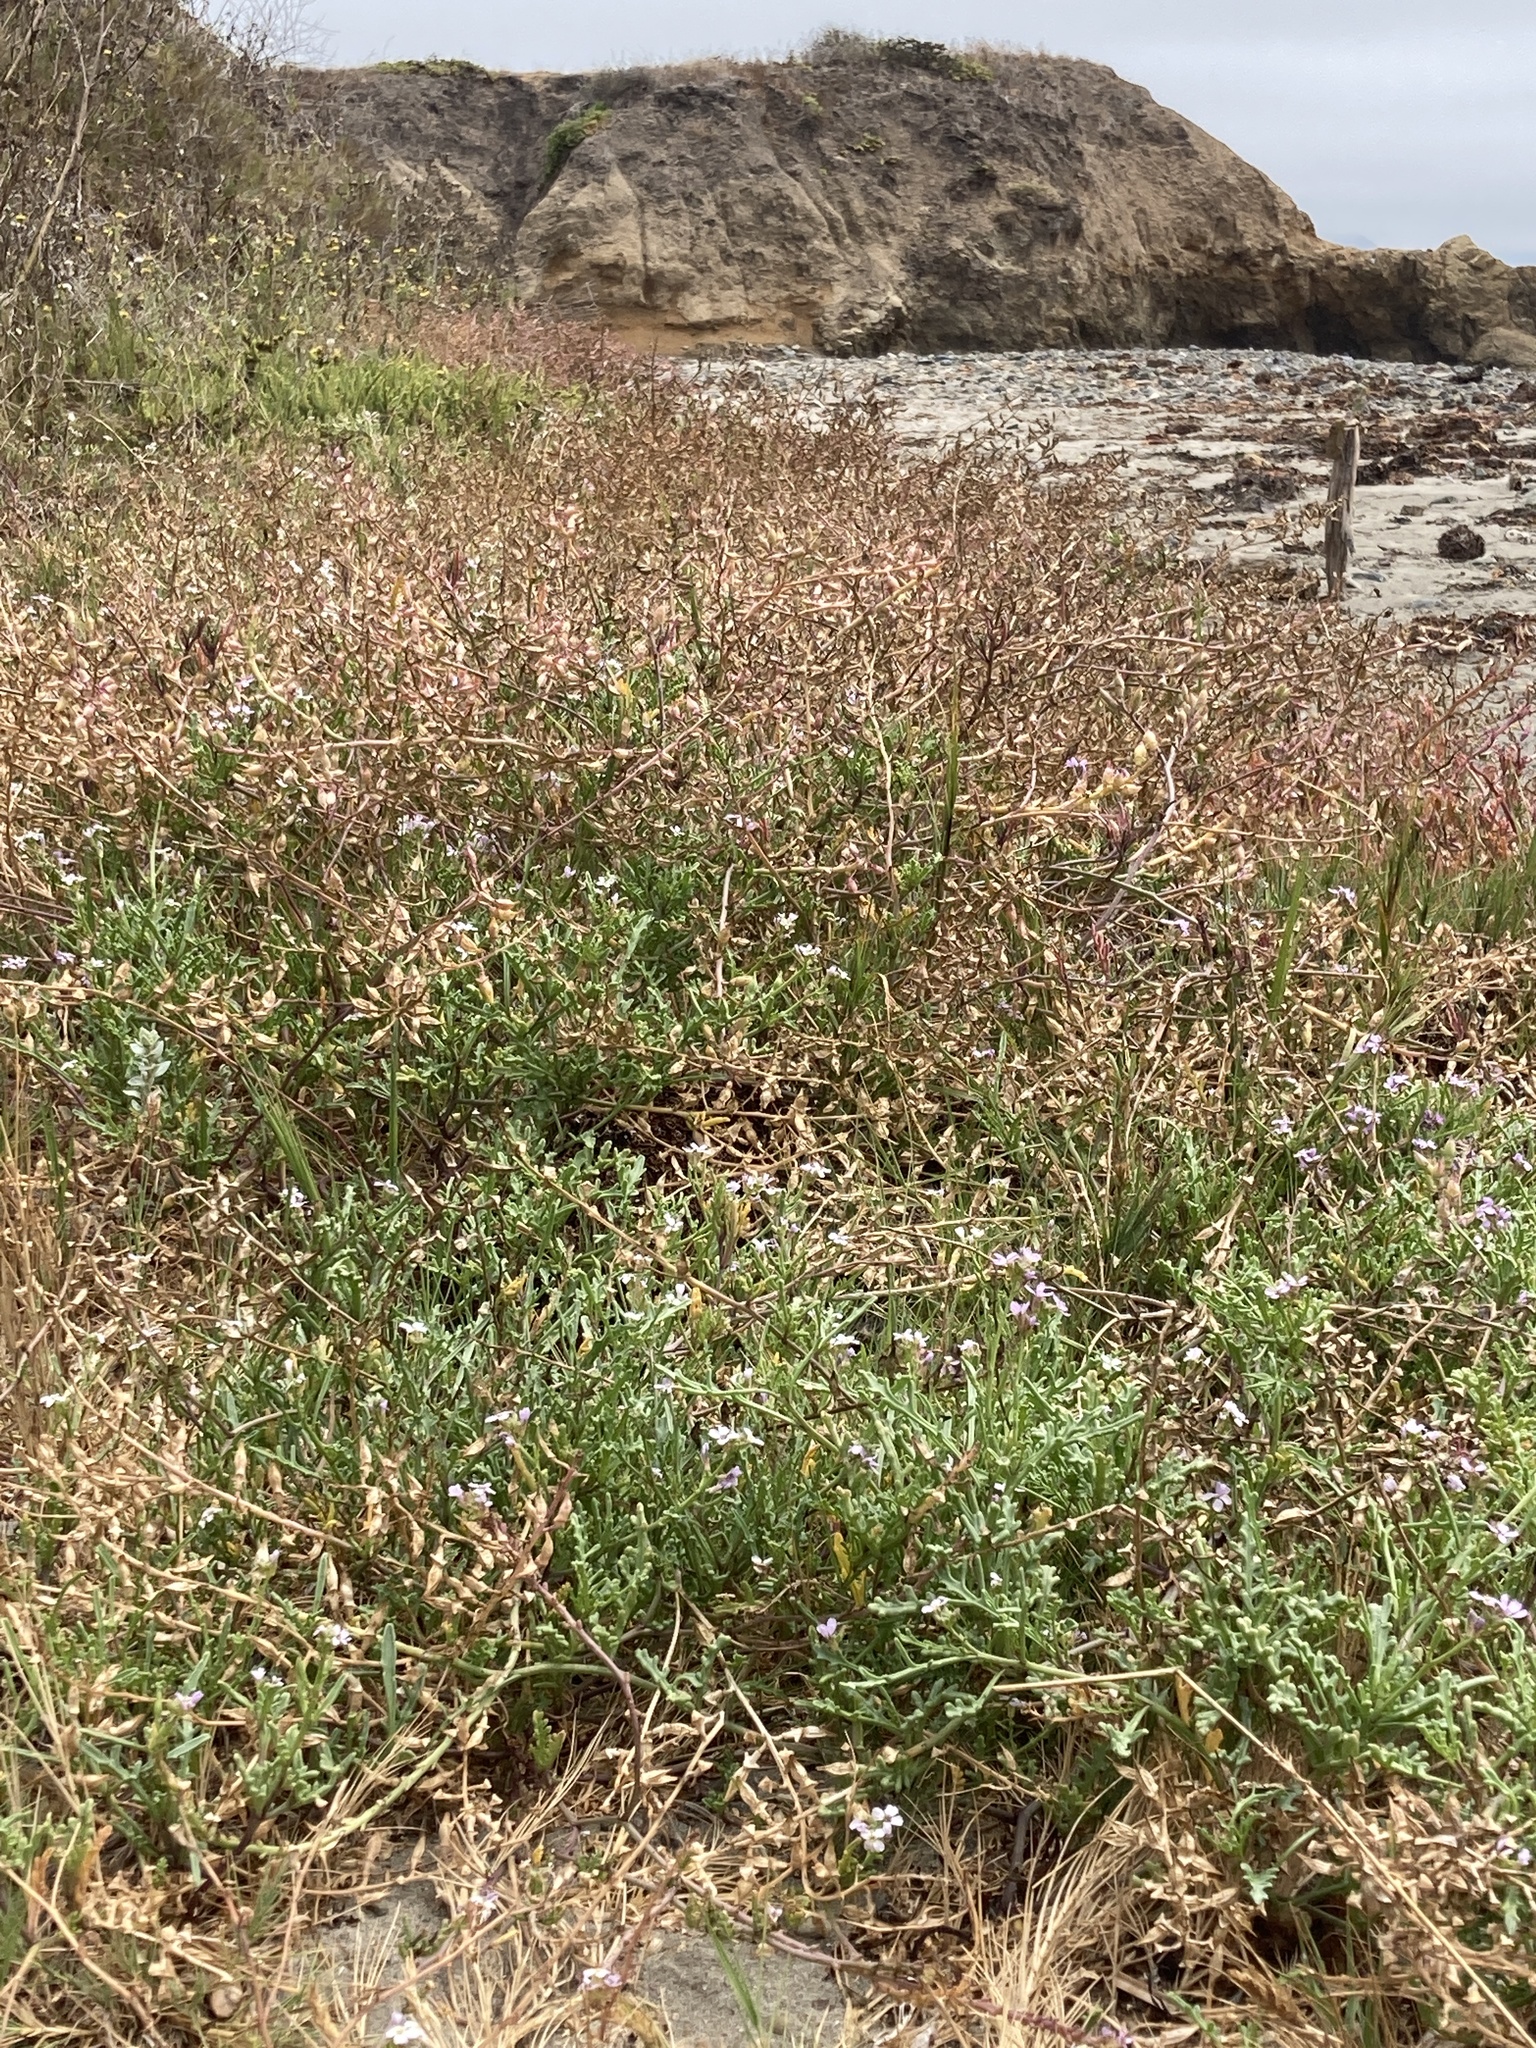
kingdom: Plantae
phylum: Tracheophyta
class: Magnoliopsida
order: Brassicales
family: Brassicaceae
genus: Cakile
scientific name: Cakile maritima
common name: Sea rocket
